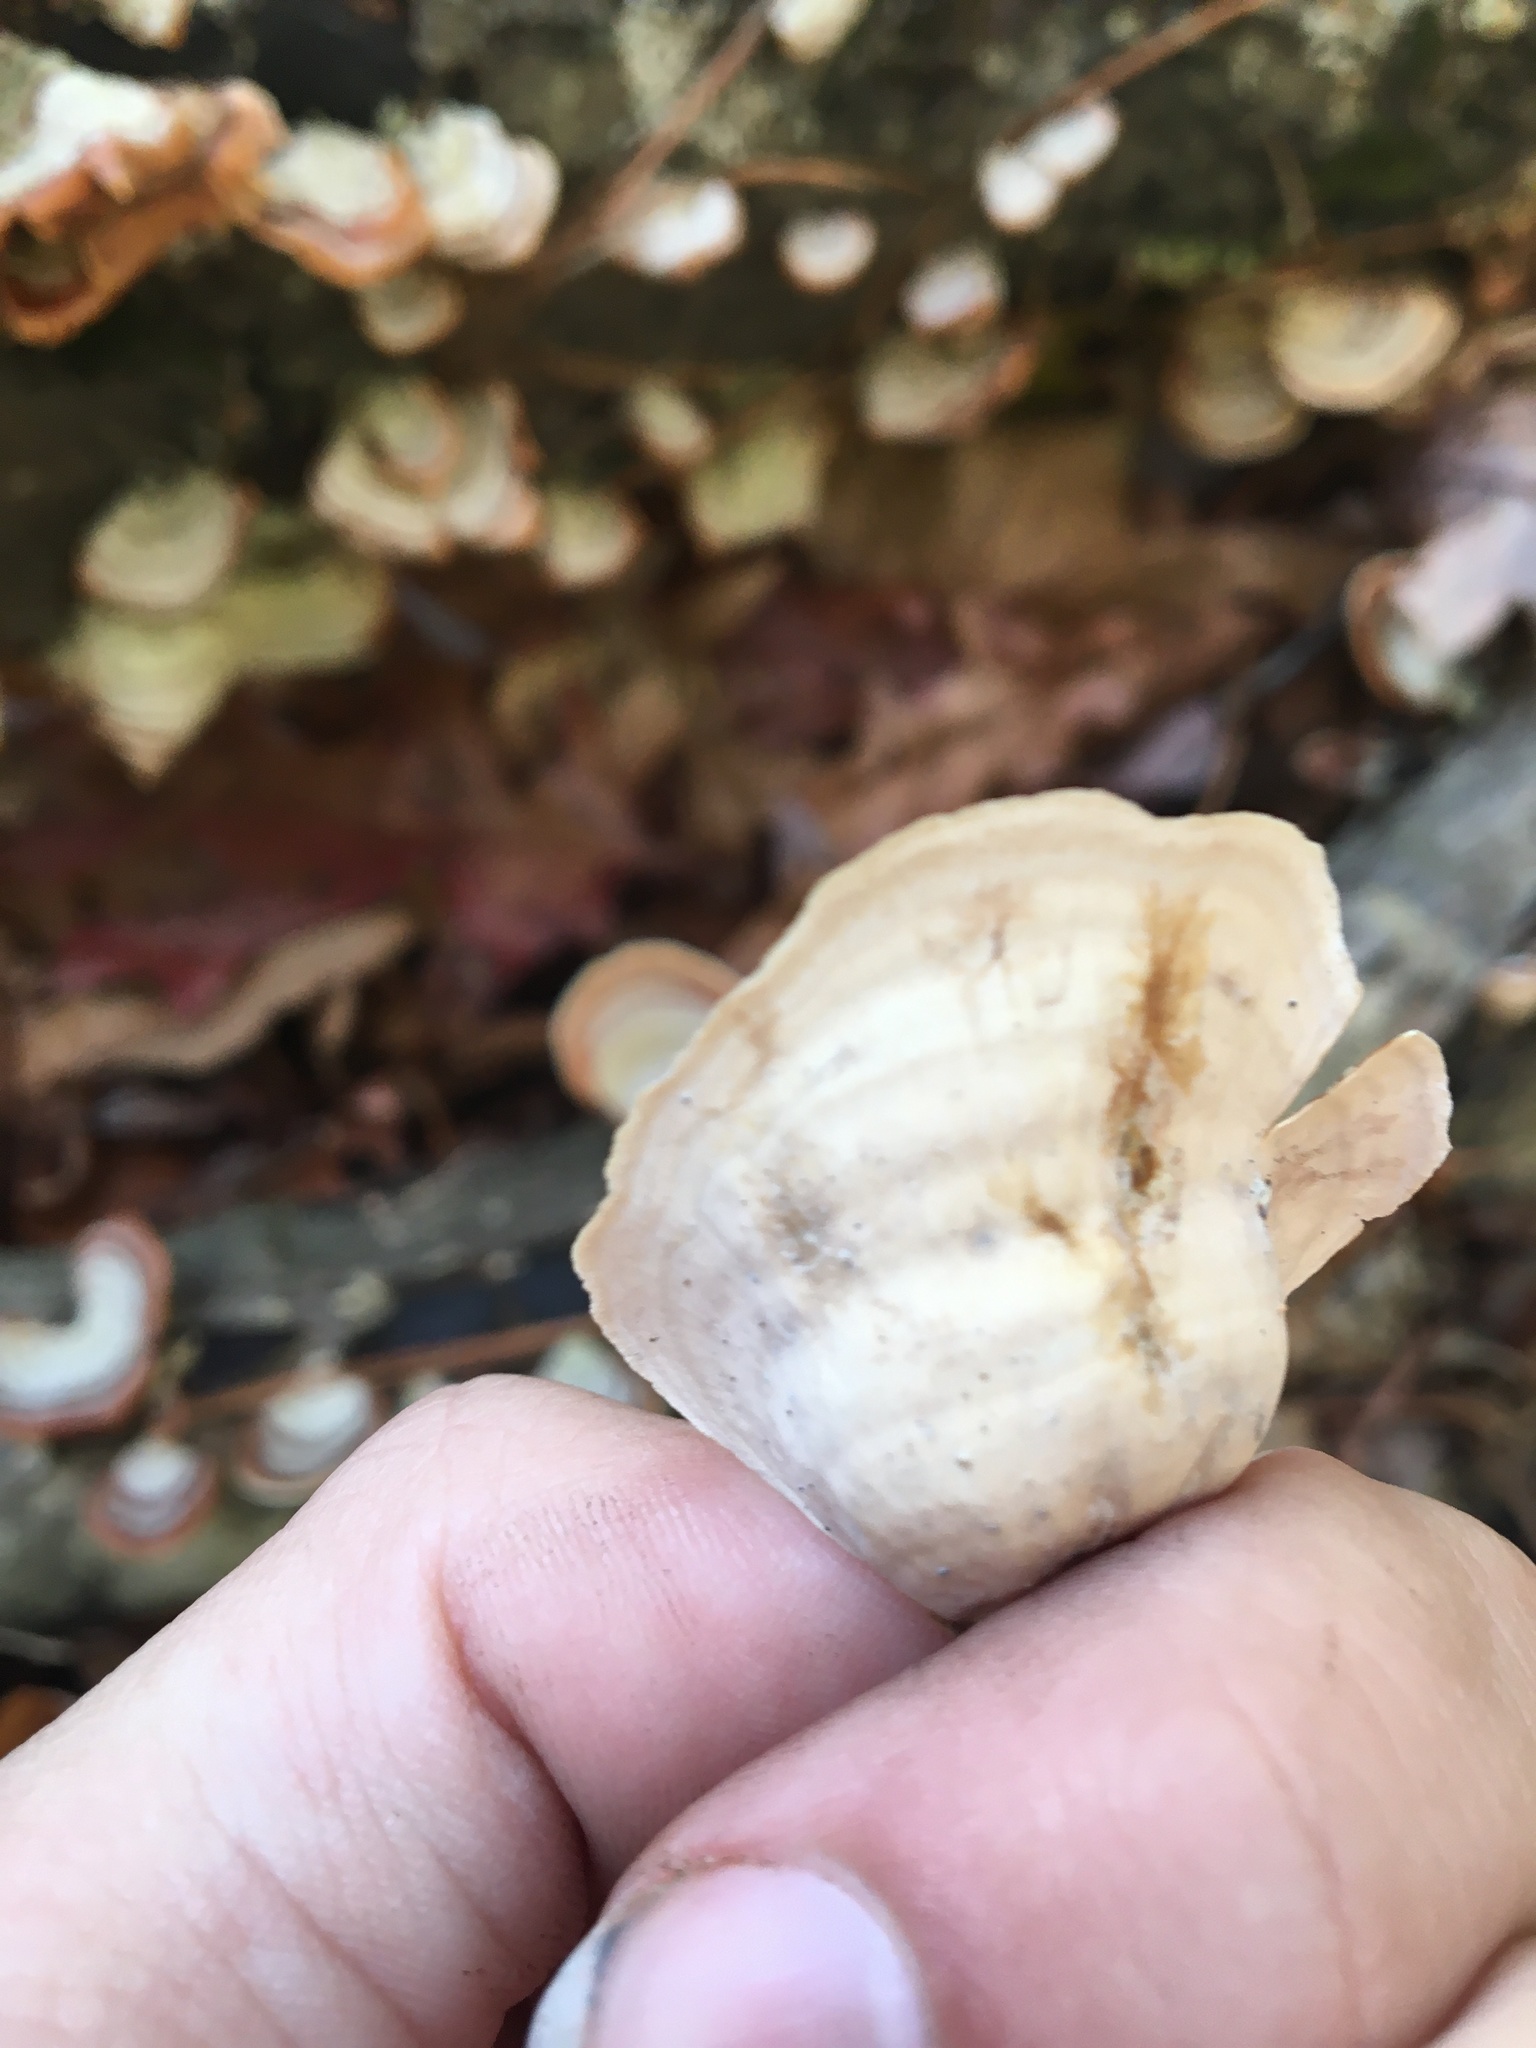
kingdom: Fungi
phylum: Basidiomycota
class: Agaricomycetes
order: Russulales
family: Stereaceae
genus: Stereum
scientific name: Stereum lobatum
